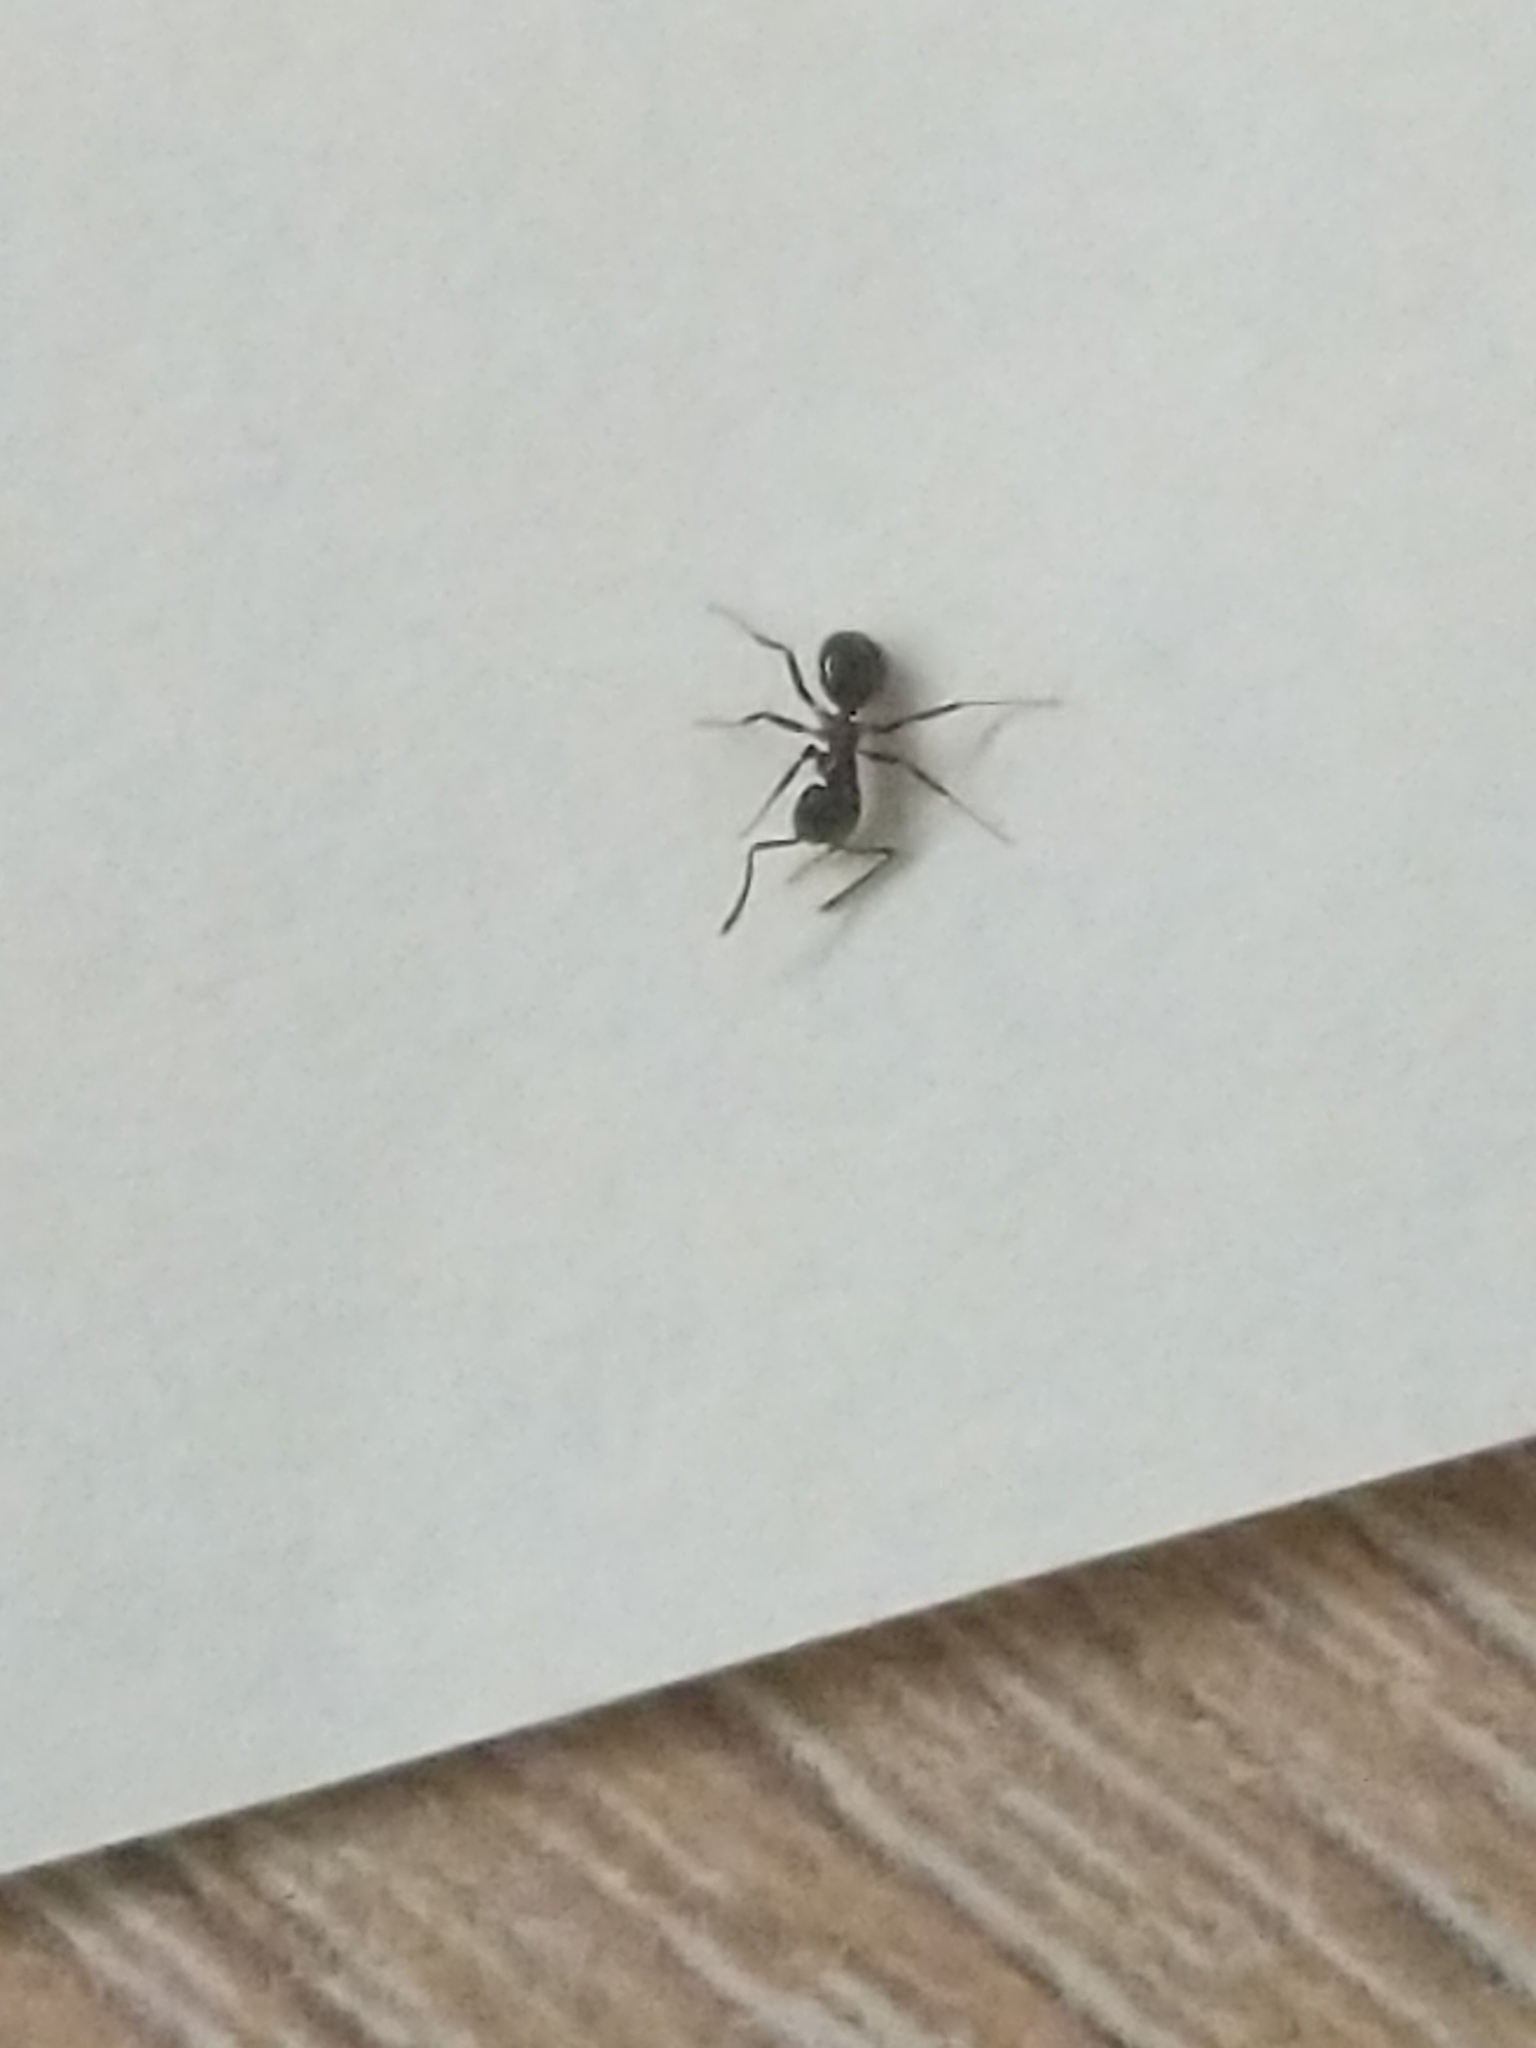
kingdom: Animalia
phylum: Arthropoda
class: Insecta
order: Hymenoptera
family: Formicidae
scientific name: Formicidae
